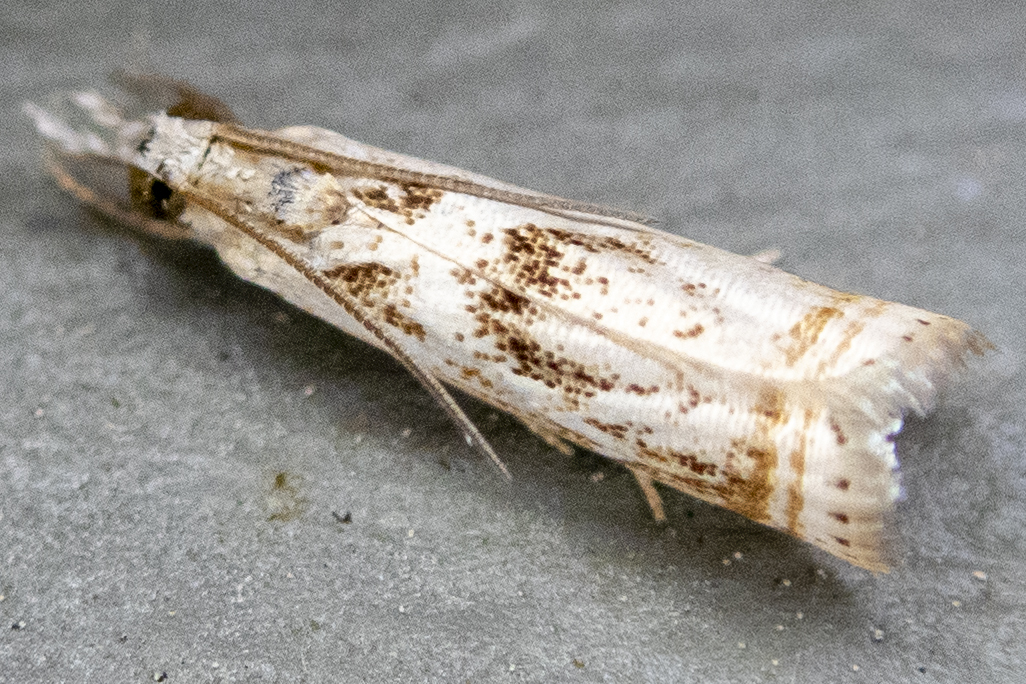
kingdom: Animalia
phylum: Arthropoda
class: Insecta
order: Lepidoptera
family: Crambidae
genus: Microcrambus
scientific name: Microcrambus elegans
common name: Elegant grass-veneer
